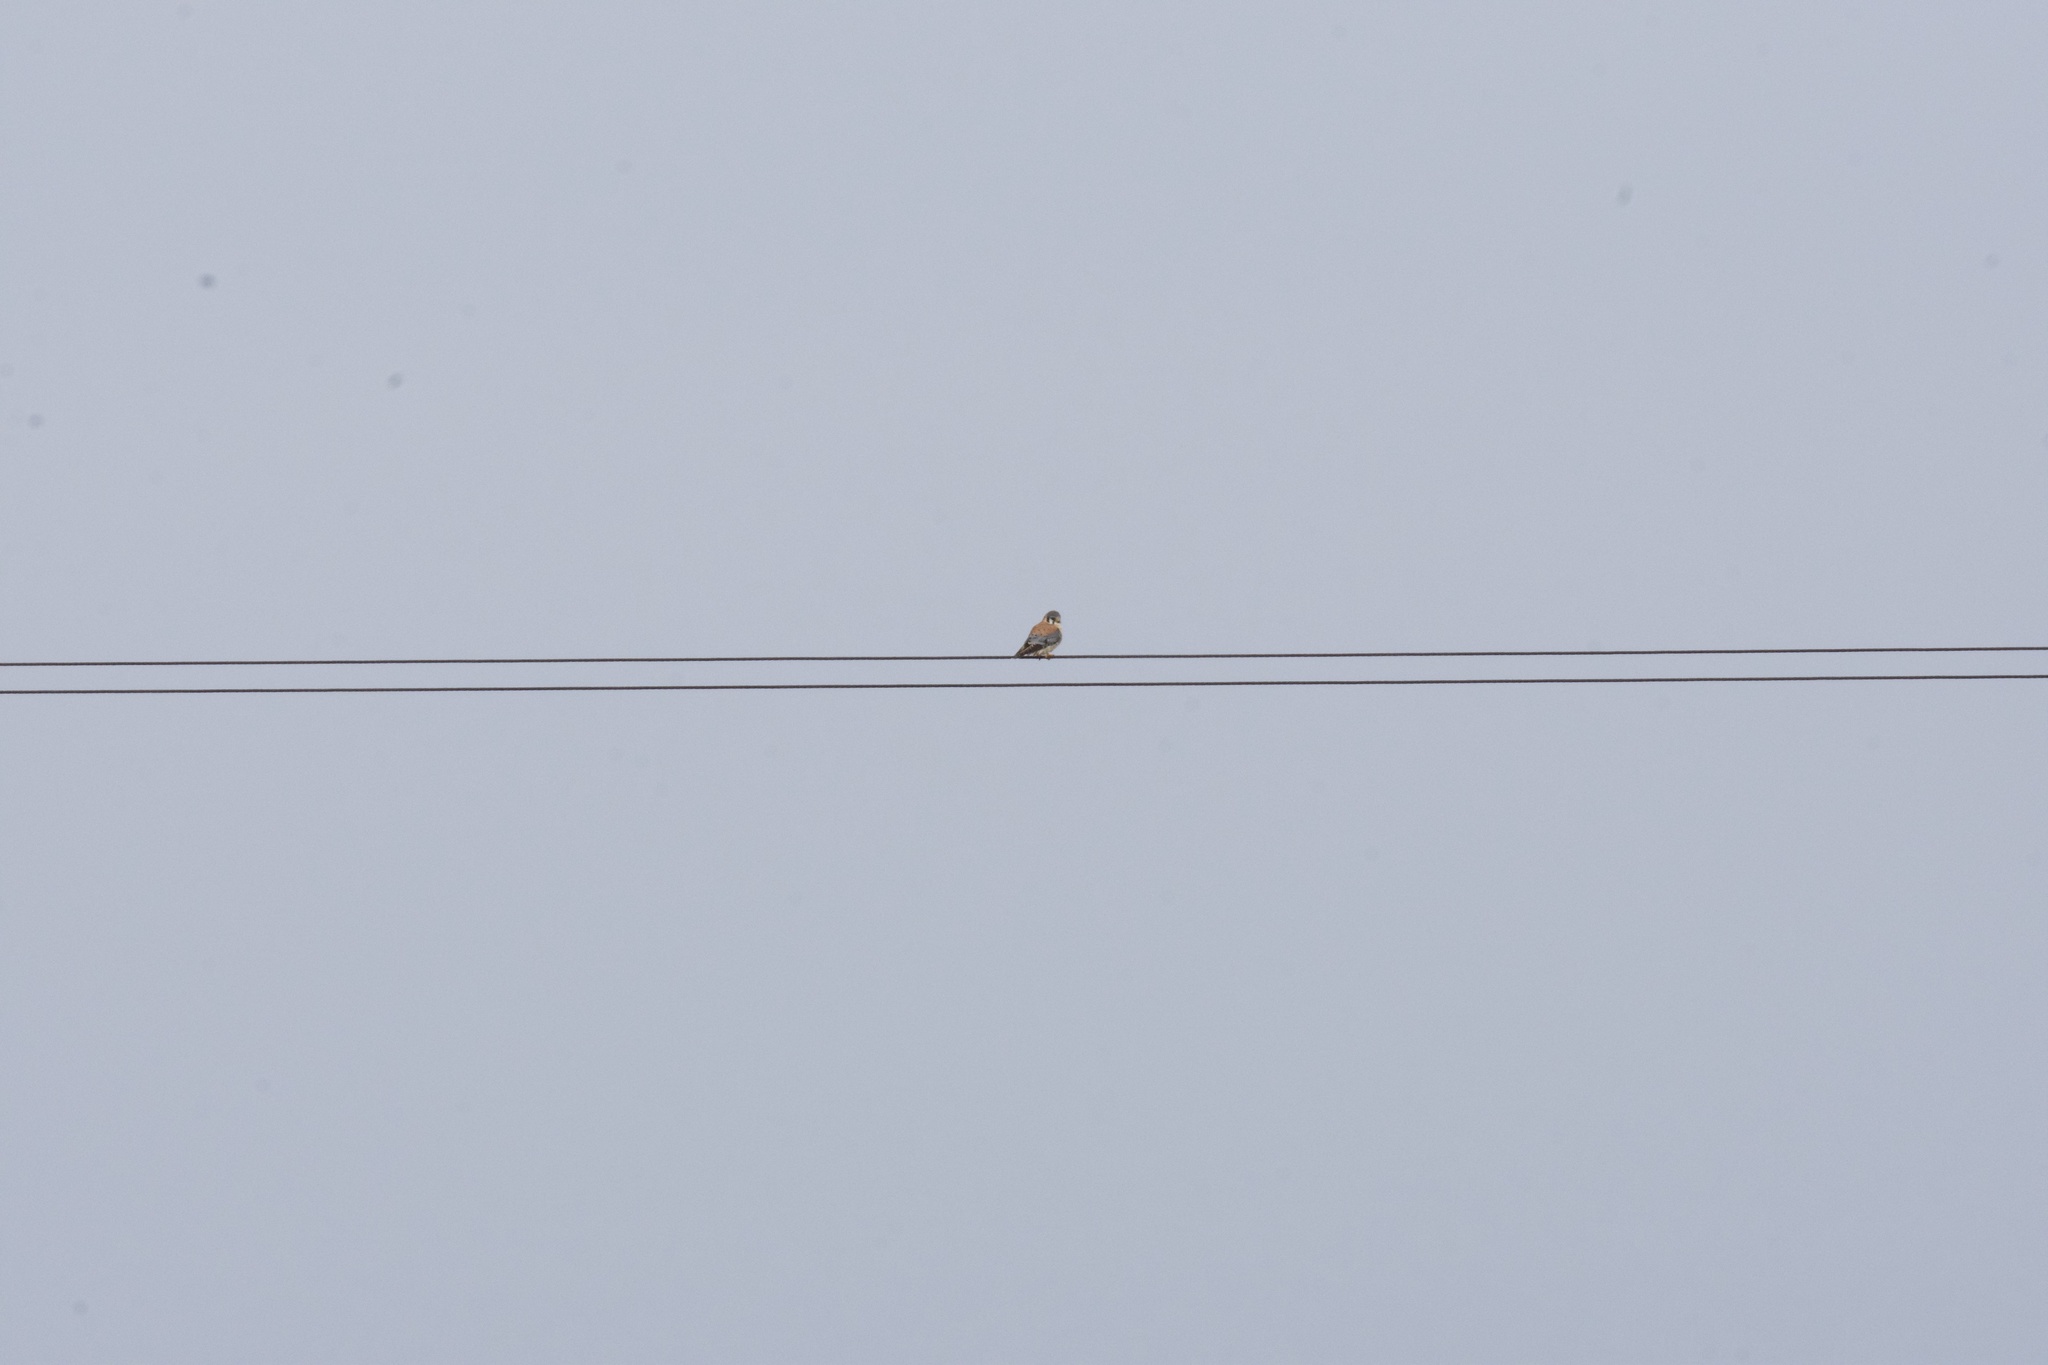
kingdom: Animalia
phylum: Chordata
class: Aves
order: Falconiformes
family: Falconidae
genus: Falco
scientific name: Falco sparverius
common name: American kestrel
